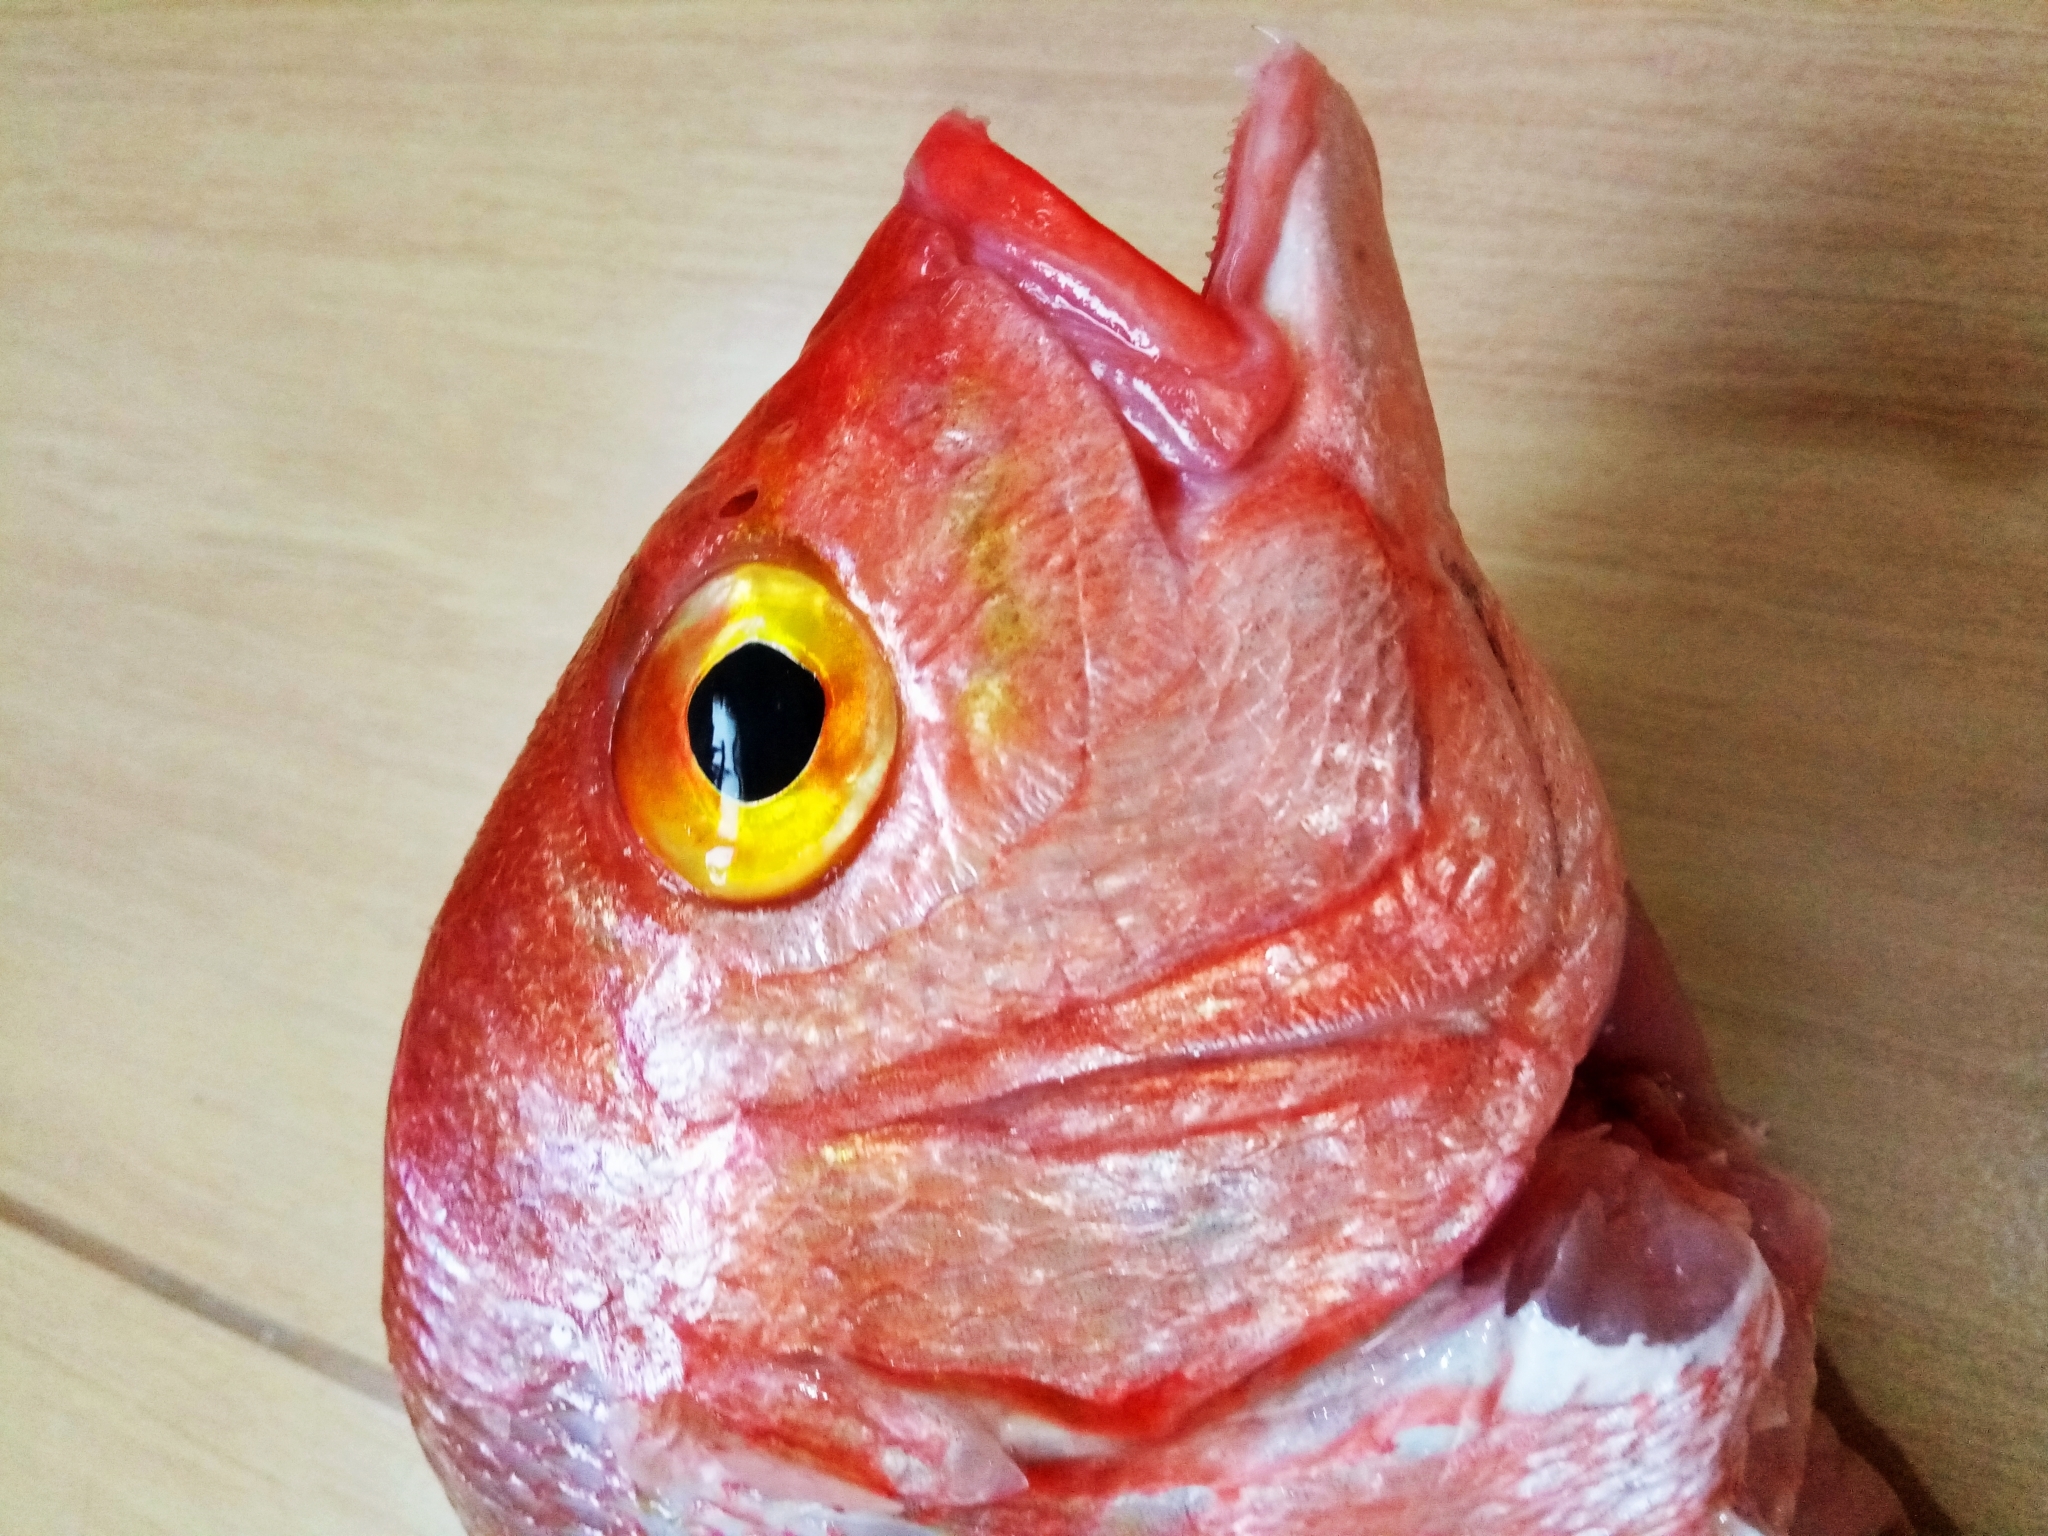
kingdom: Animalia
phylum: Chordata
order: Perciformes
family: Sparidae
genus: Dentex
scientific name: Dentex maroccanus
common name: Morocco dentex
